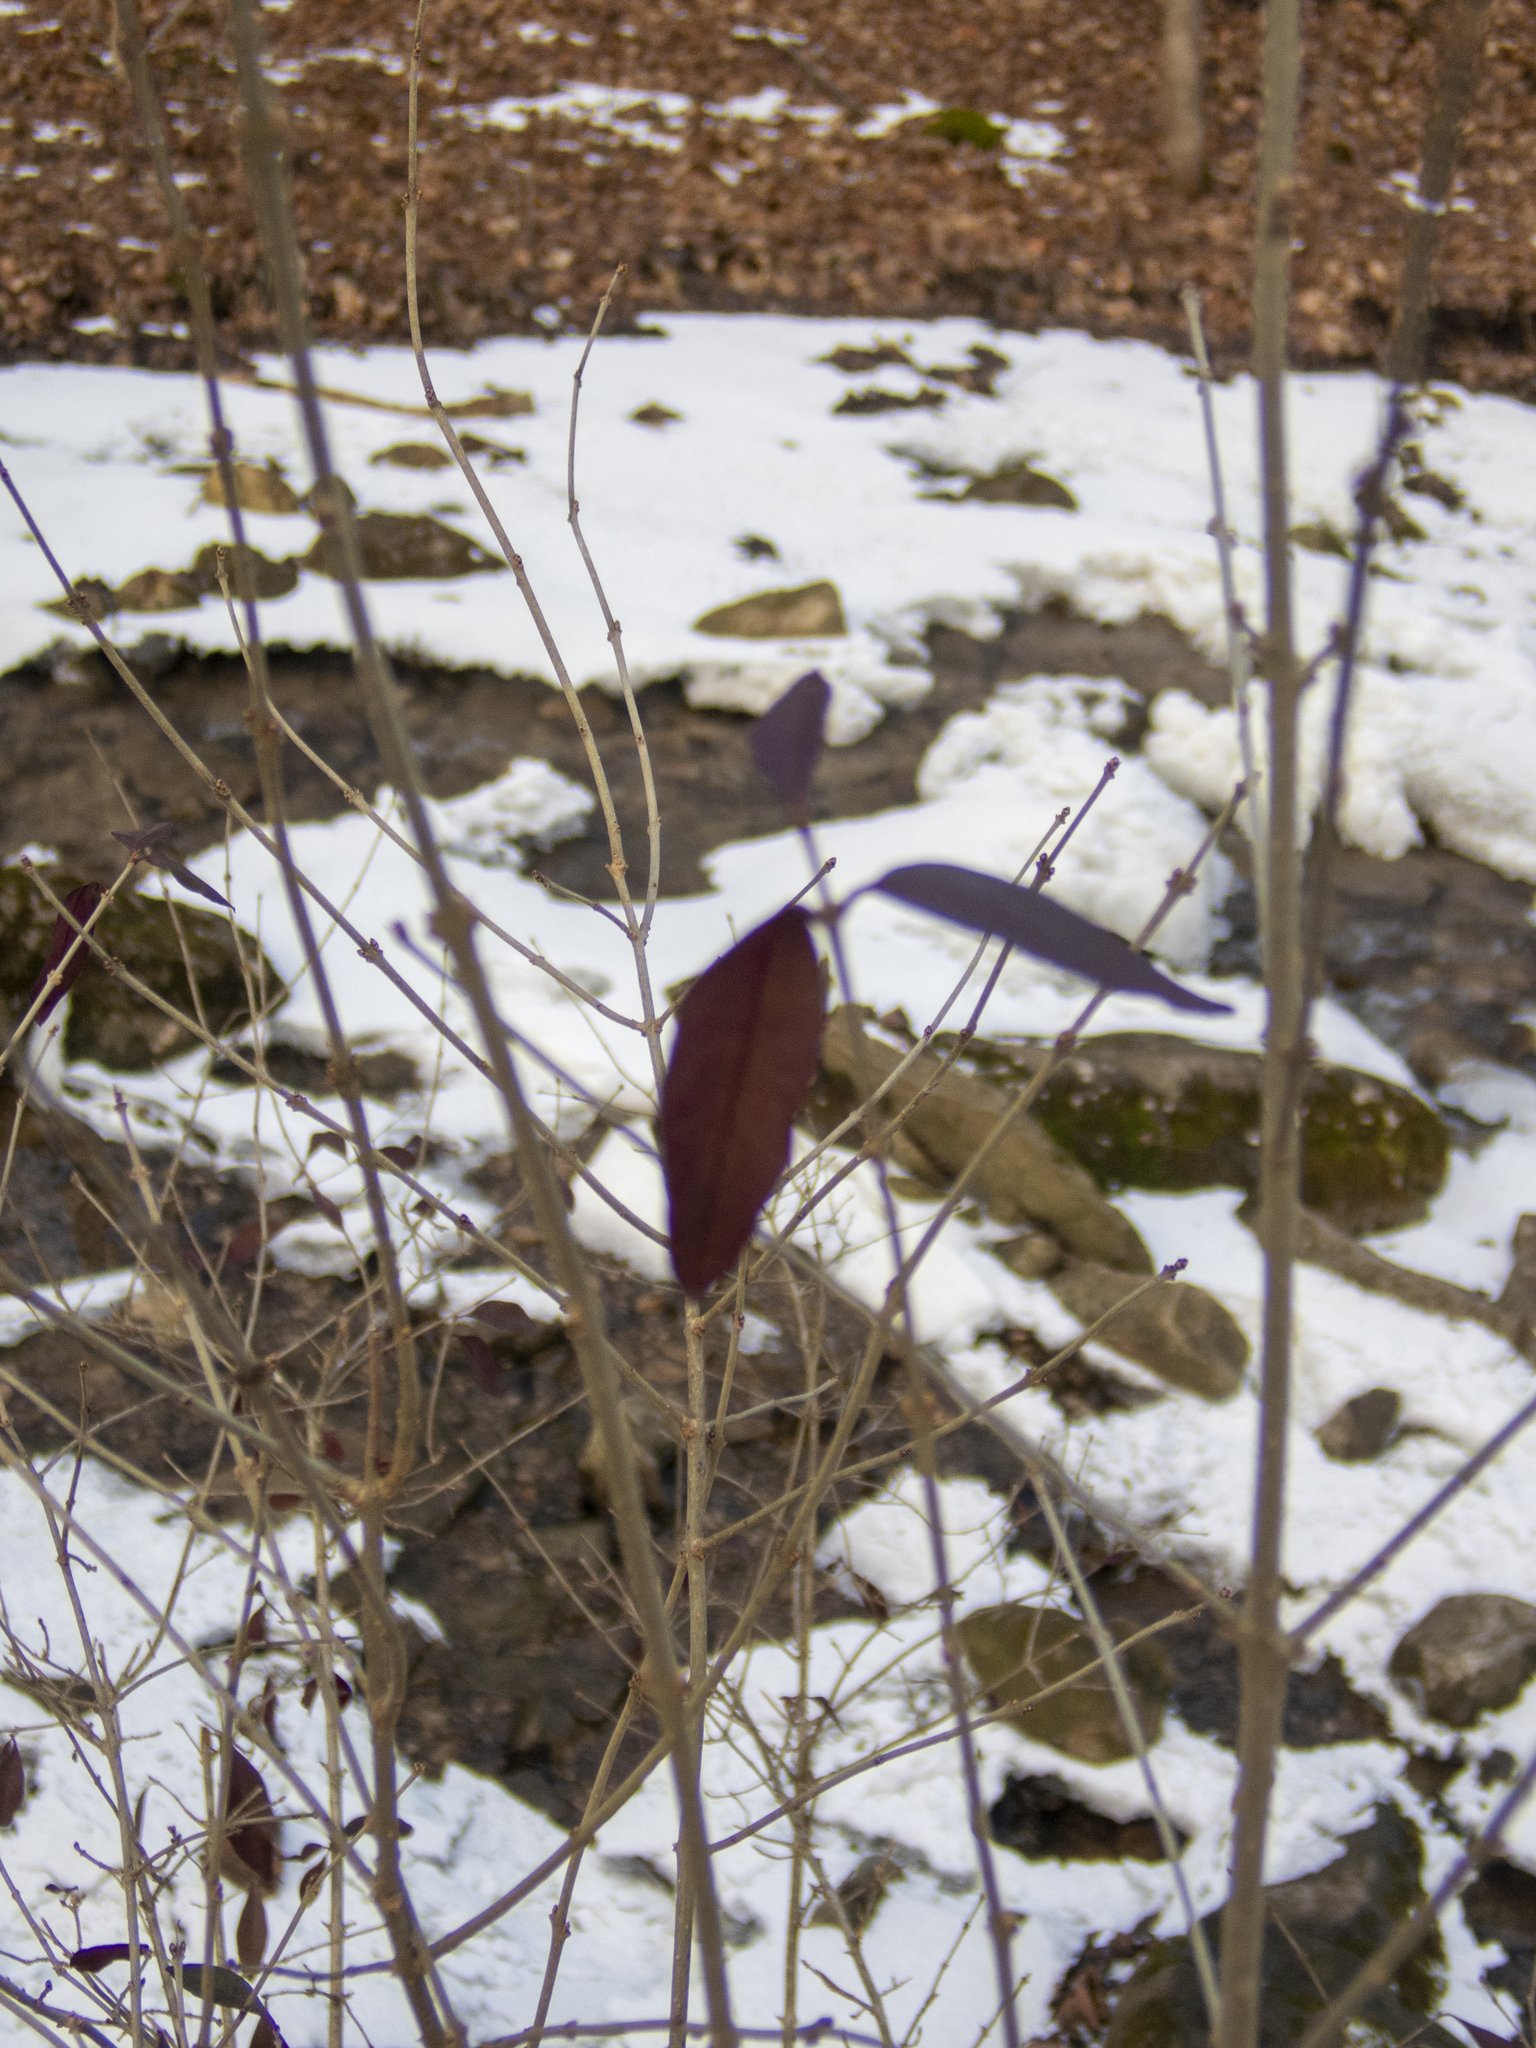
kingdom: Plantae
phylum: Tracheophyta
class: Magnoliopsida
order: Lamiales
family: Oleaceae
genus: Ligustrum
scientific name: Ligustrum obtusifolium
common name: Border privet
